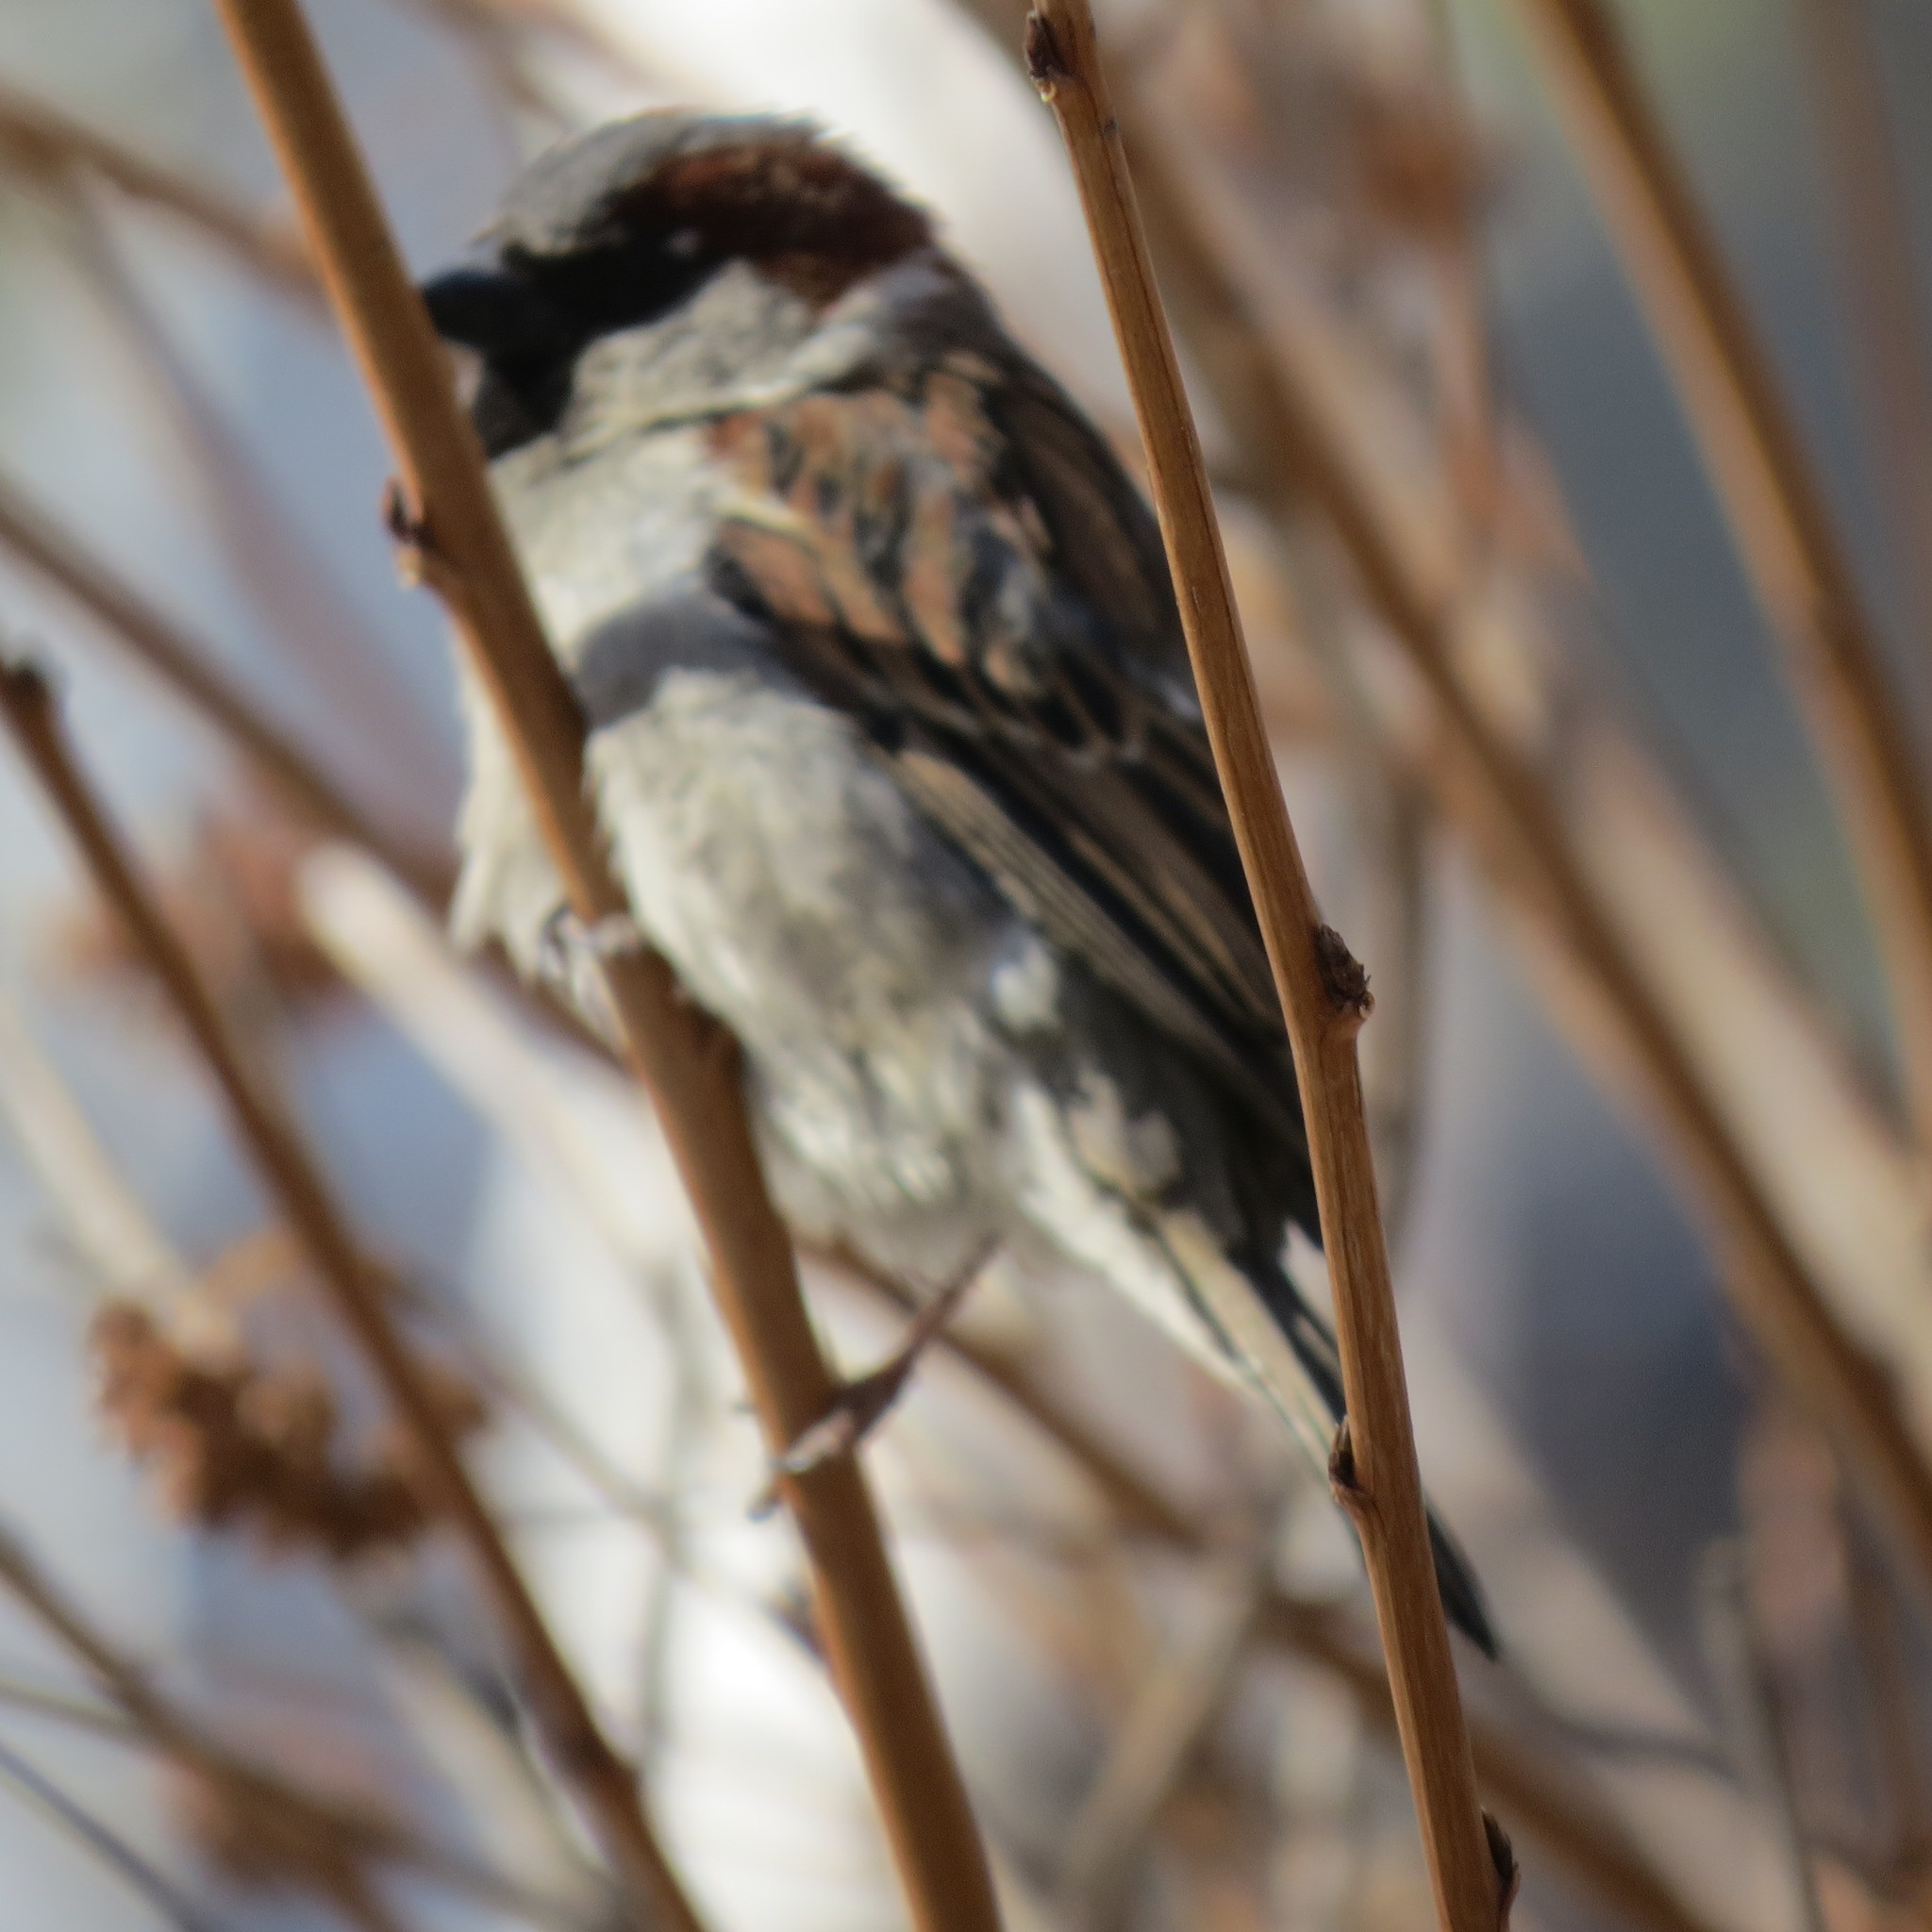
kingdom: Animalia
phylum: Chordata
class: Aves
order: Passeriformes
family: Passeridae
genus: Passer
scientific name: Passer domesticus
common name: House sparrow
